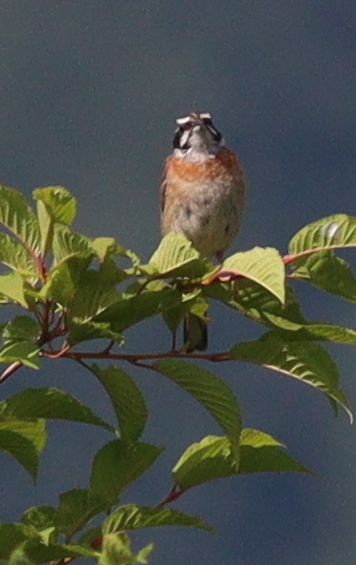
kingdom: Animalia
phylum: Chordata
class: Aves
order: Passeriformes
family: Emberizidae
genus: Emberiza
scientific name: Emberiza cioides
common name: Meadow bunting
